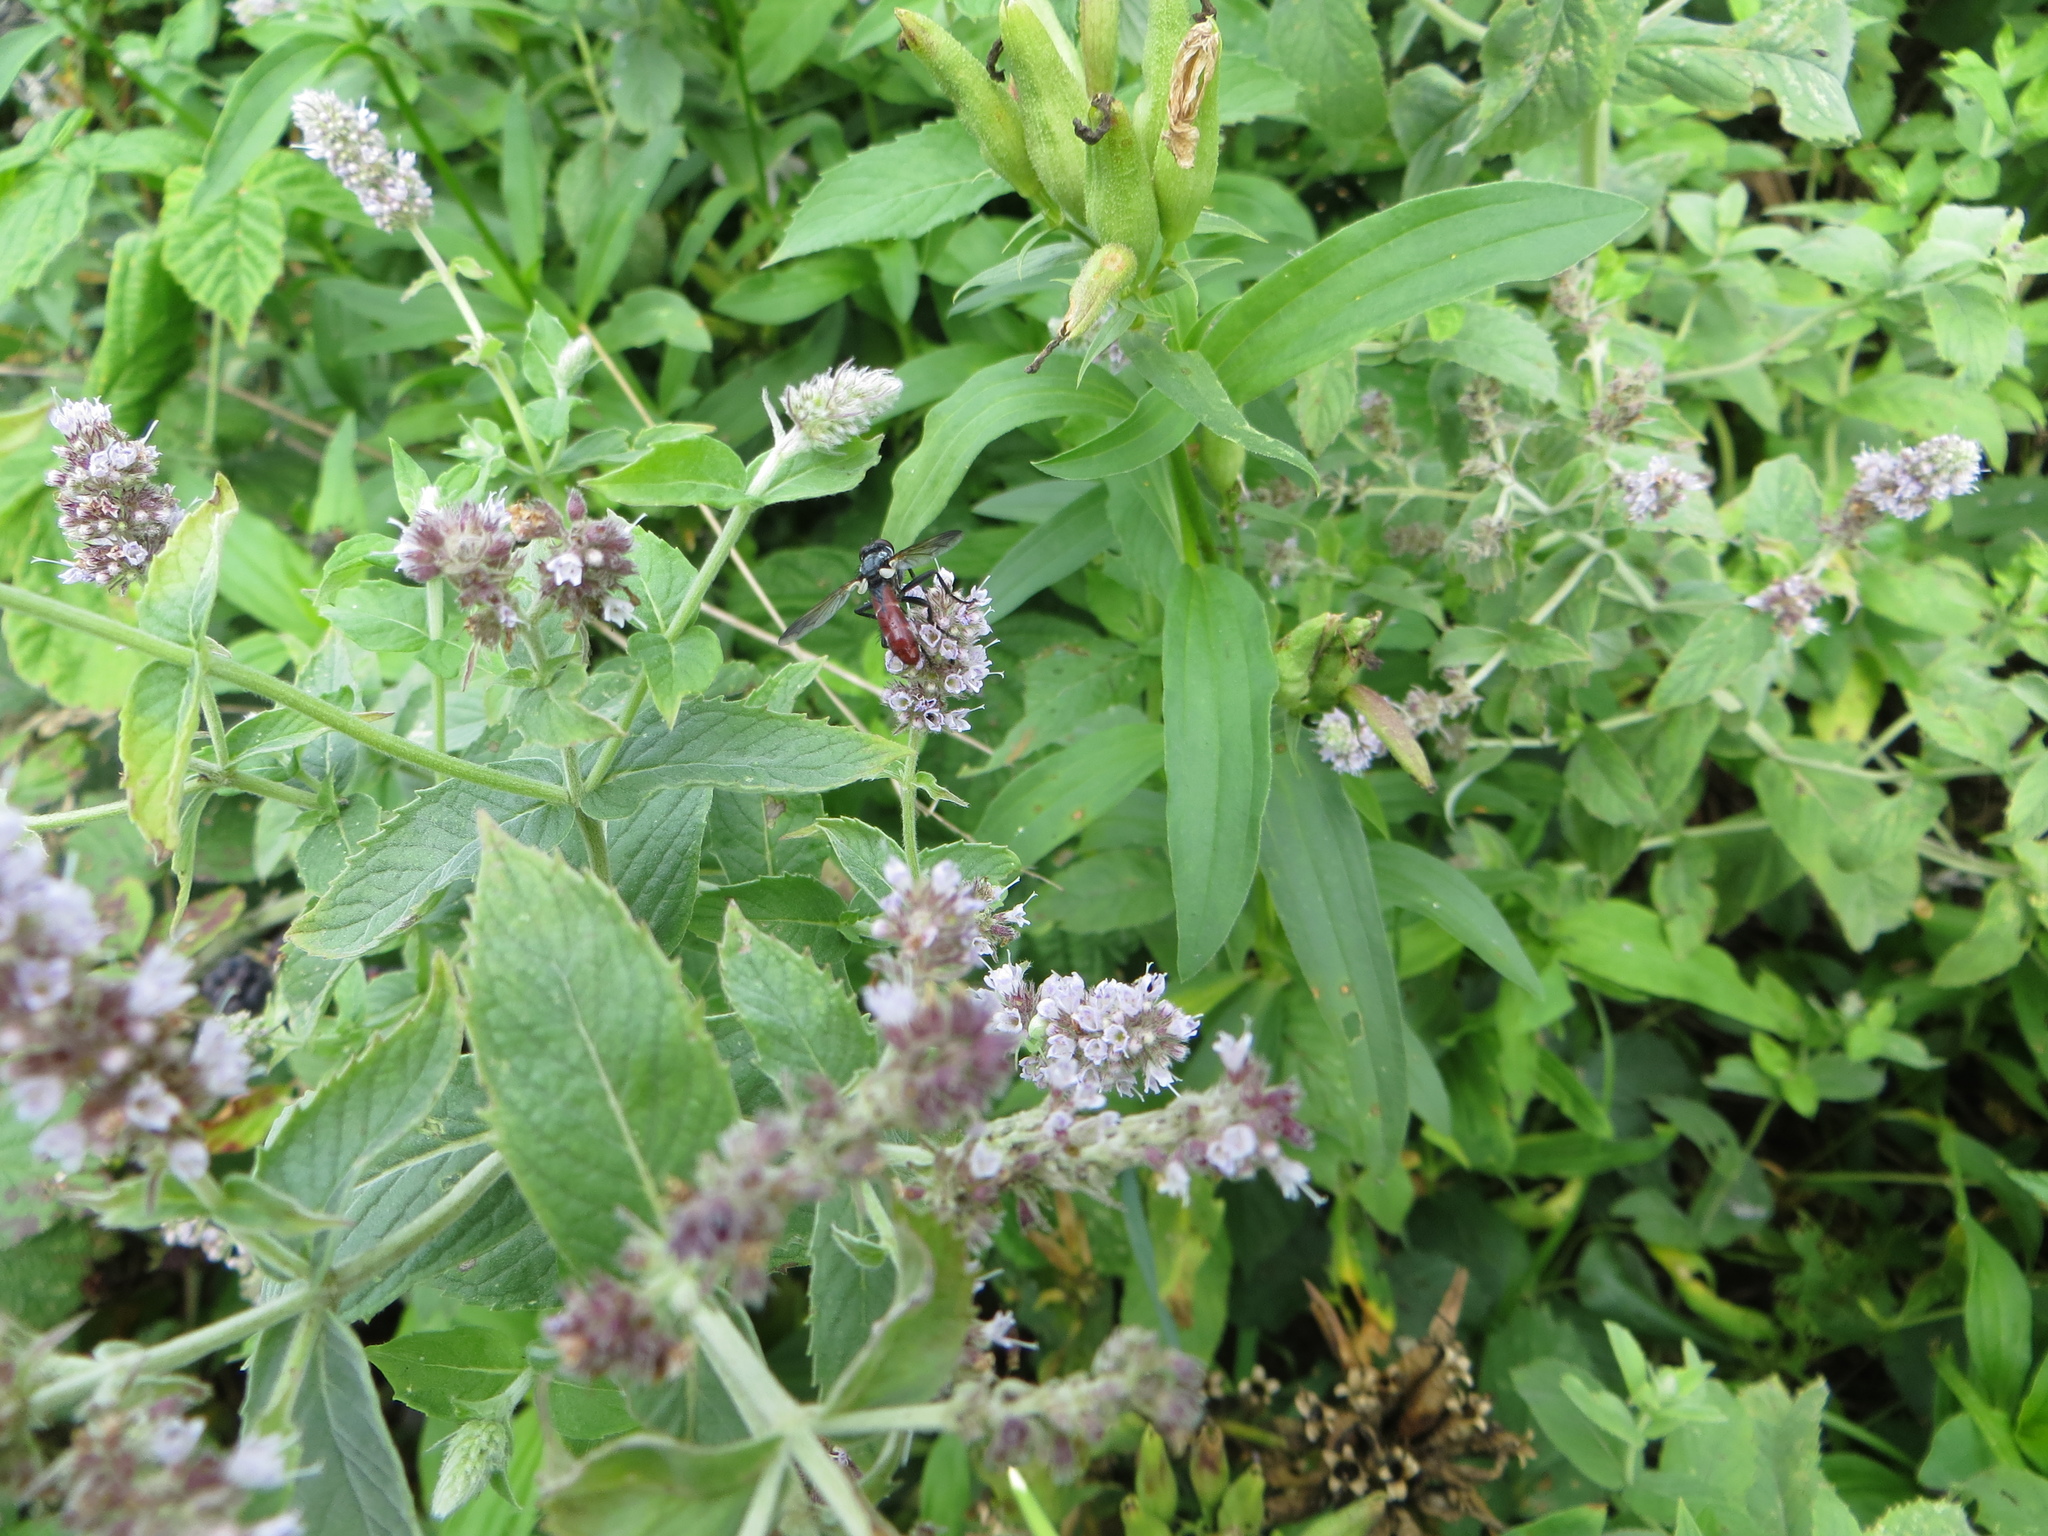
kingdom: Animalia
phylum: Arthropoda
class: Insecta
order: Diptera
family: Tachinidae
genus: Cylindromyia
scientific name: Cylindromyia bicolor
